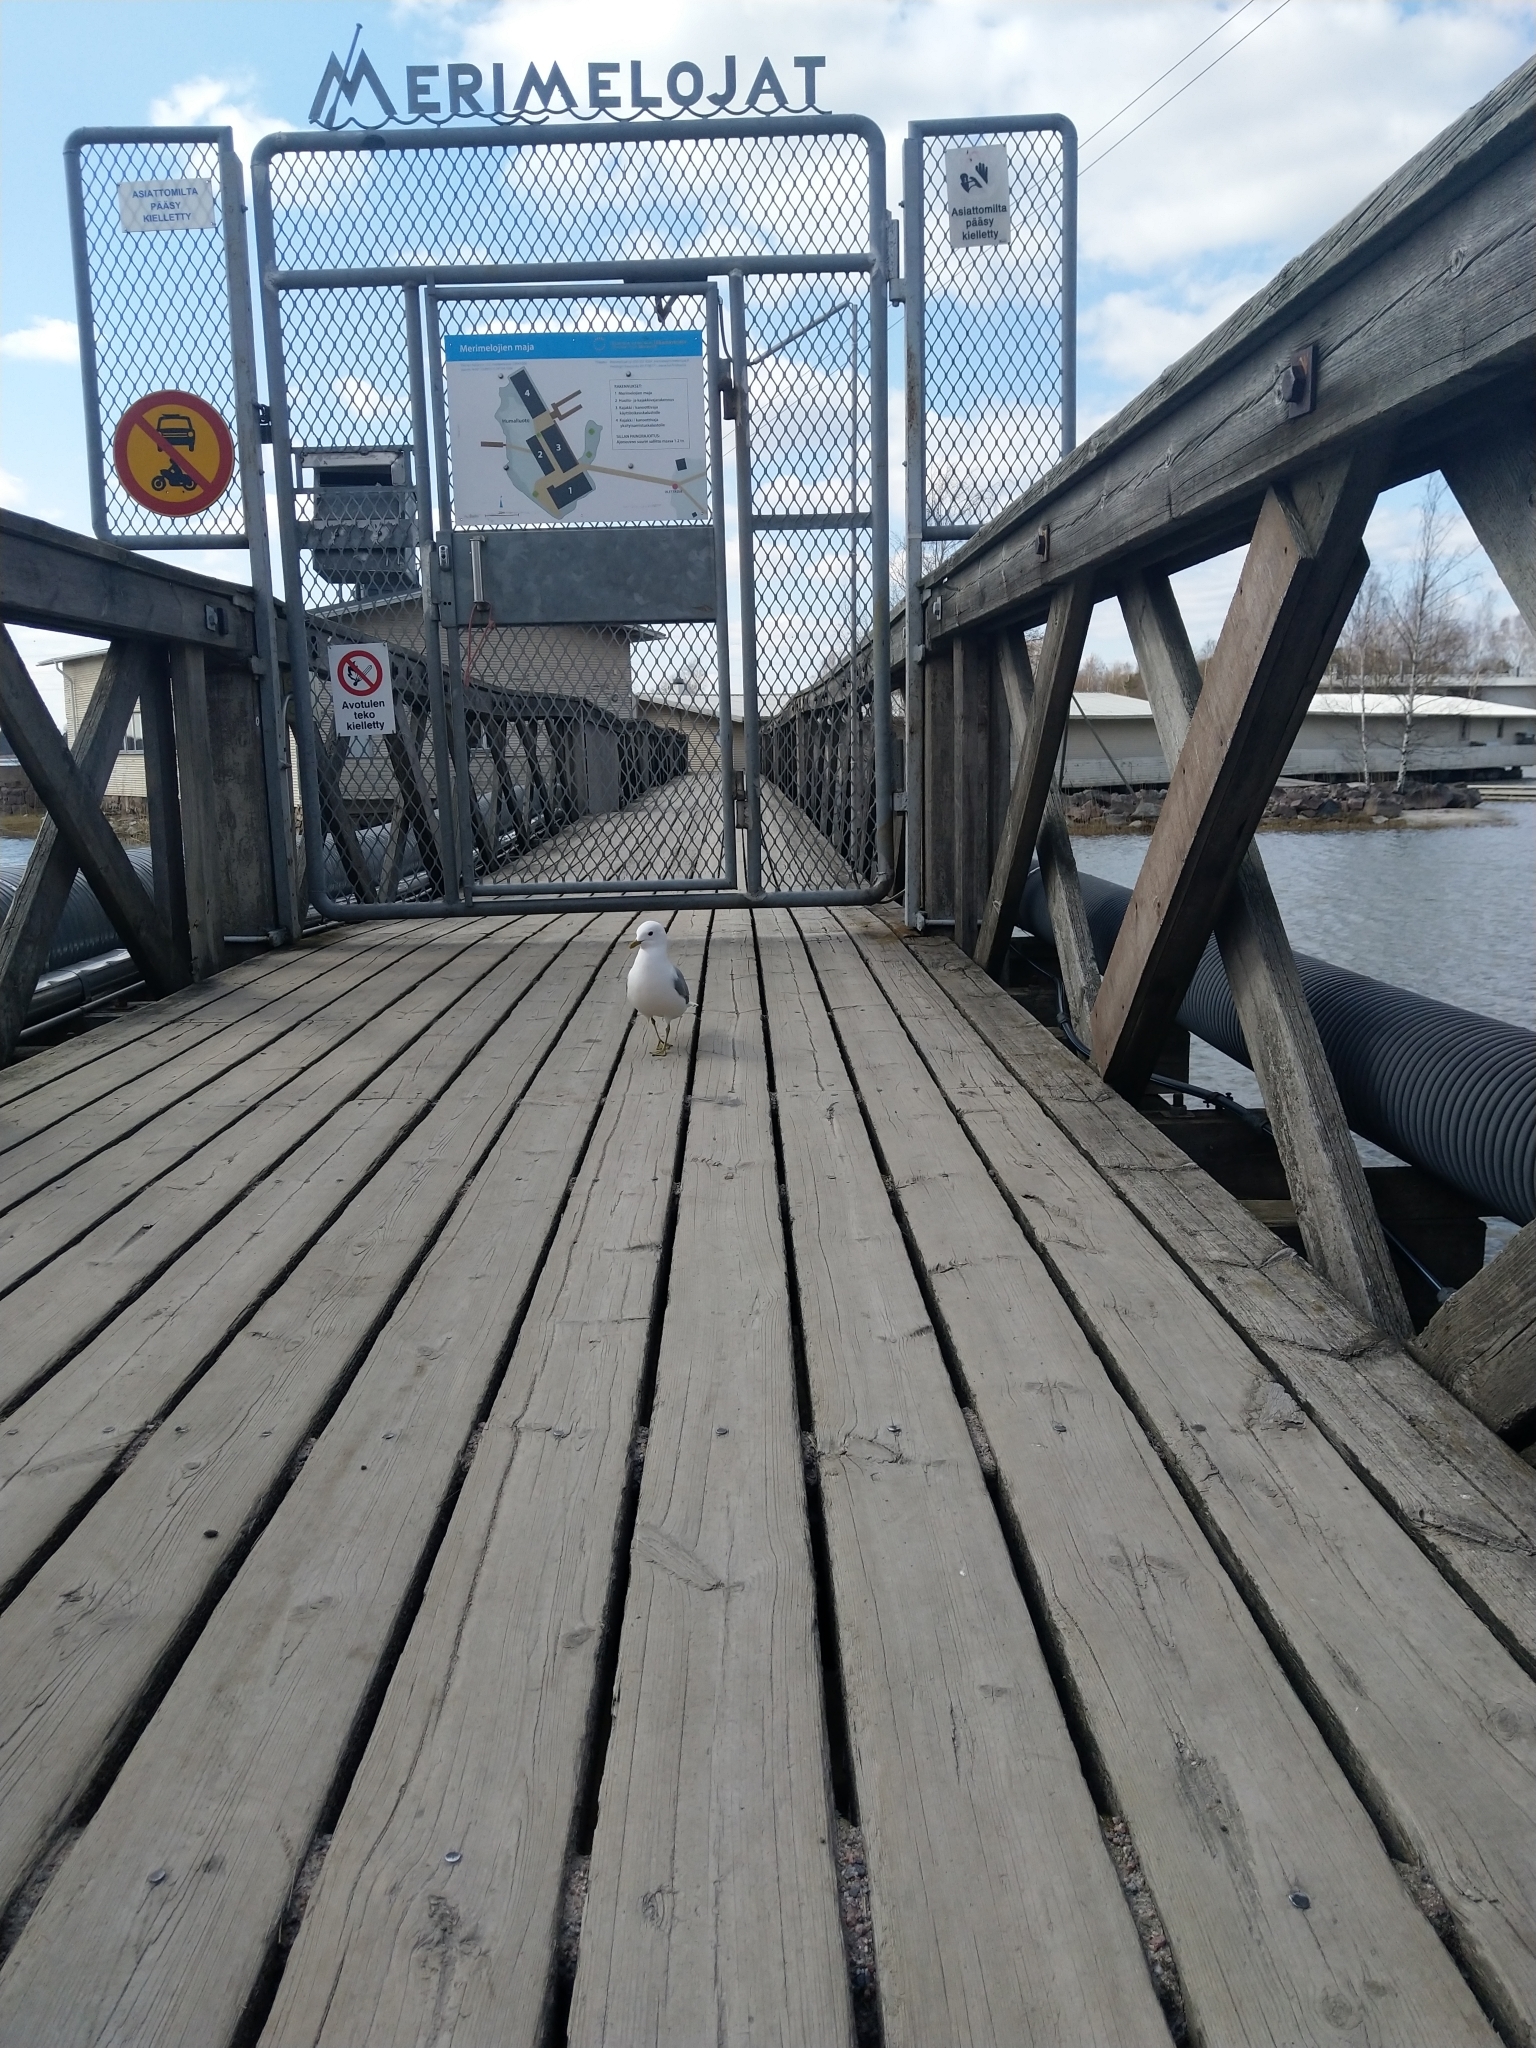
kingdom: Animalia
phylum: Chordata
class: Aves
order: Charadriiformes
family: Laridae
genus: Larus
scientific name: Larus canus
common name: Mew gull
